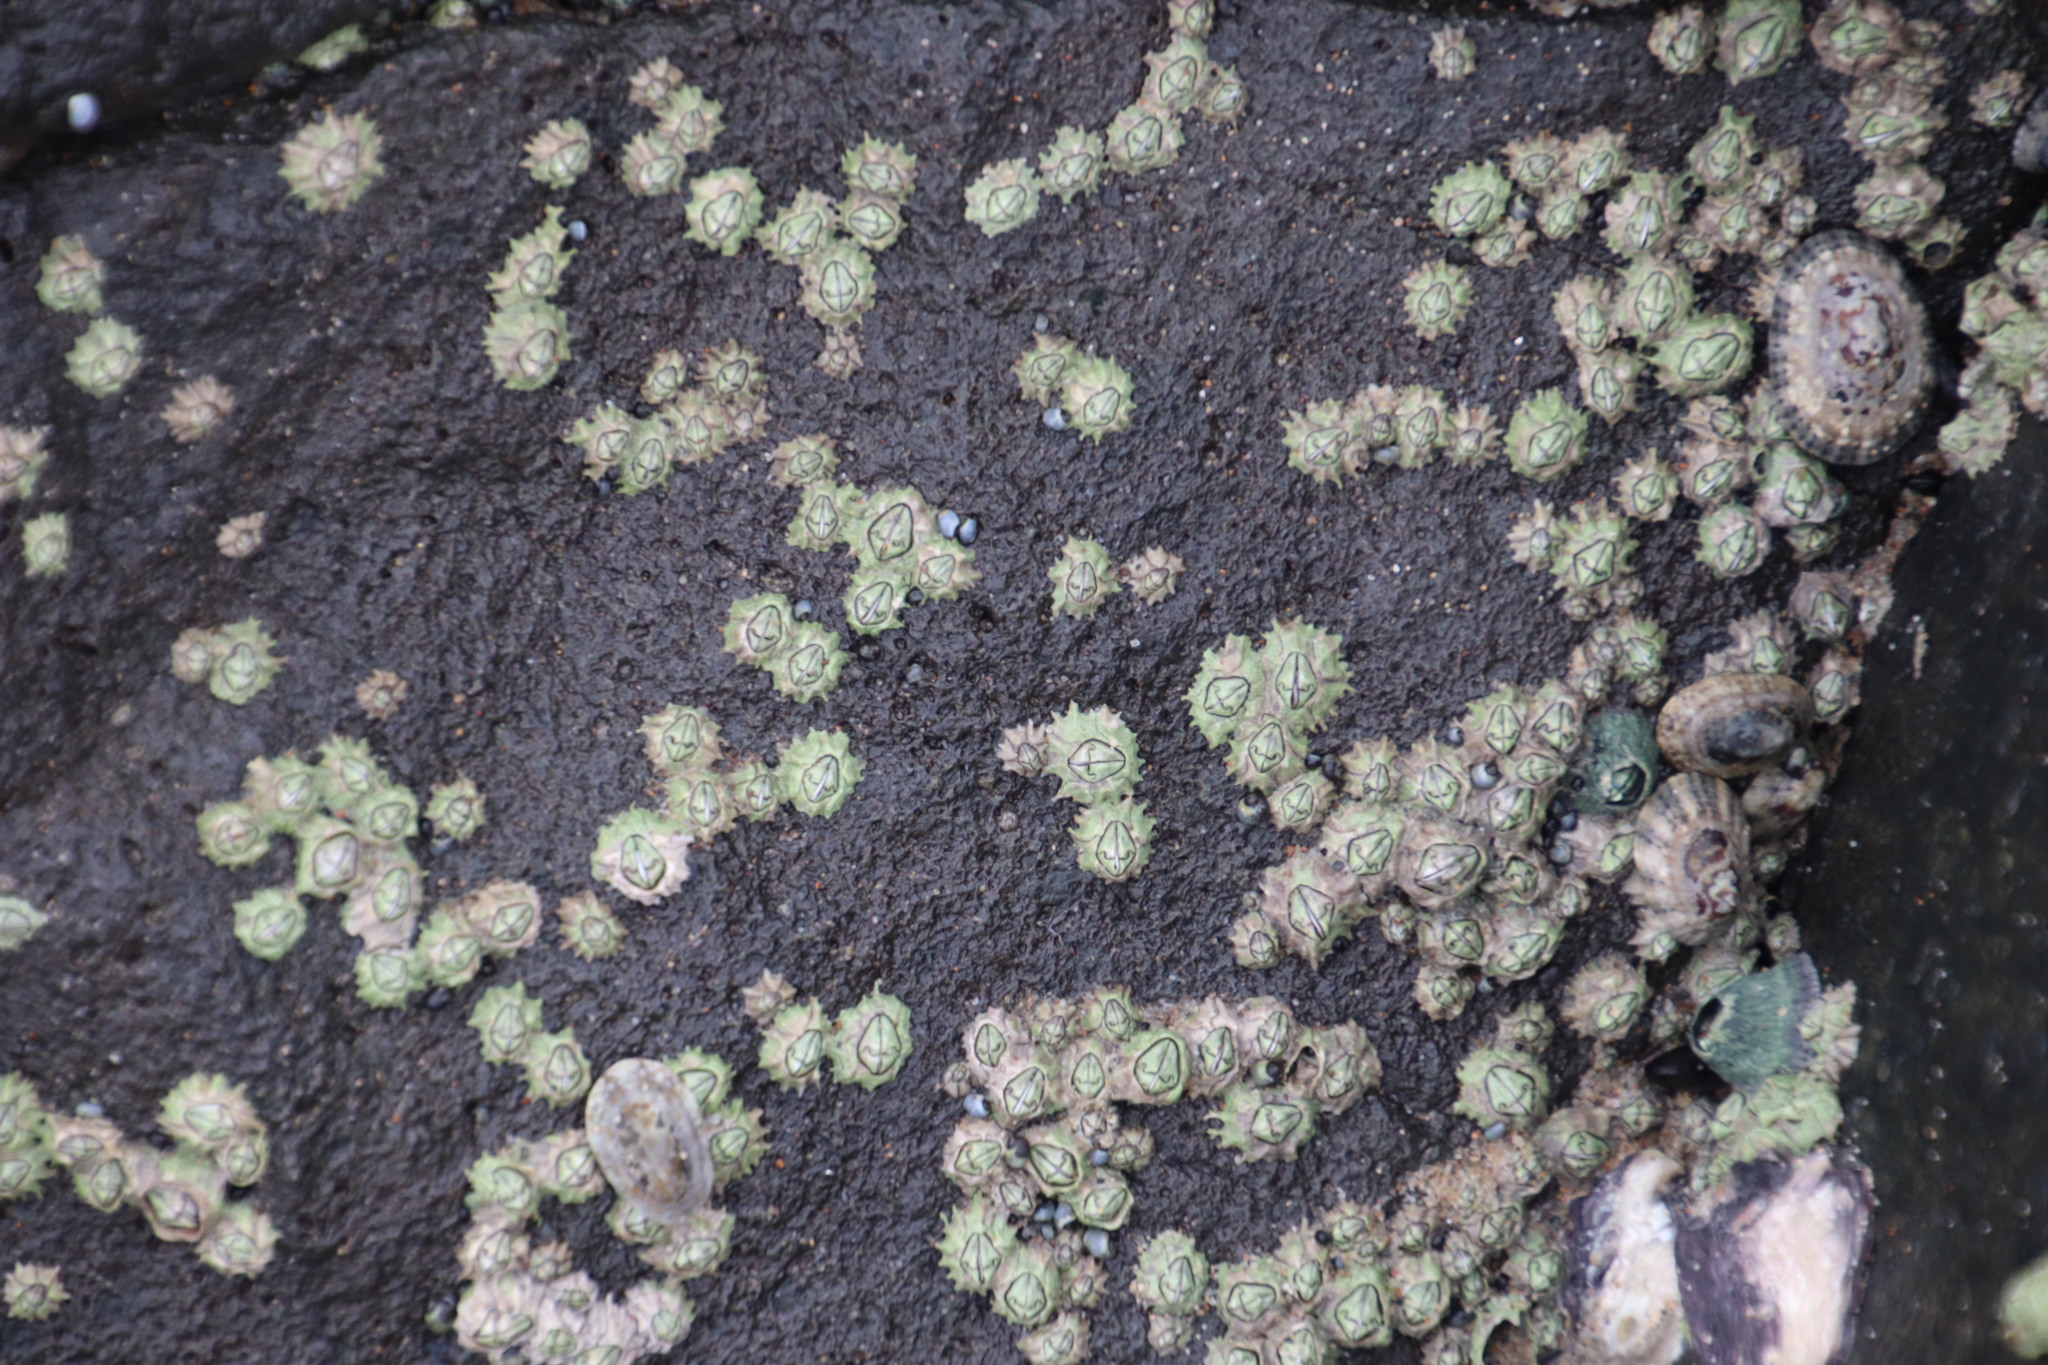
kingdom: Animalia
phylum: Arthropoda
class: Maxillopoda
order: Sessilia
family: Chthamalidae
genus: Chthamalus
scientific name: Chthamalus dentatus
